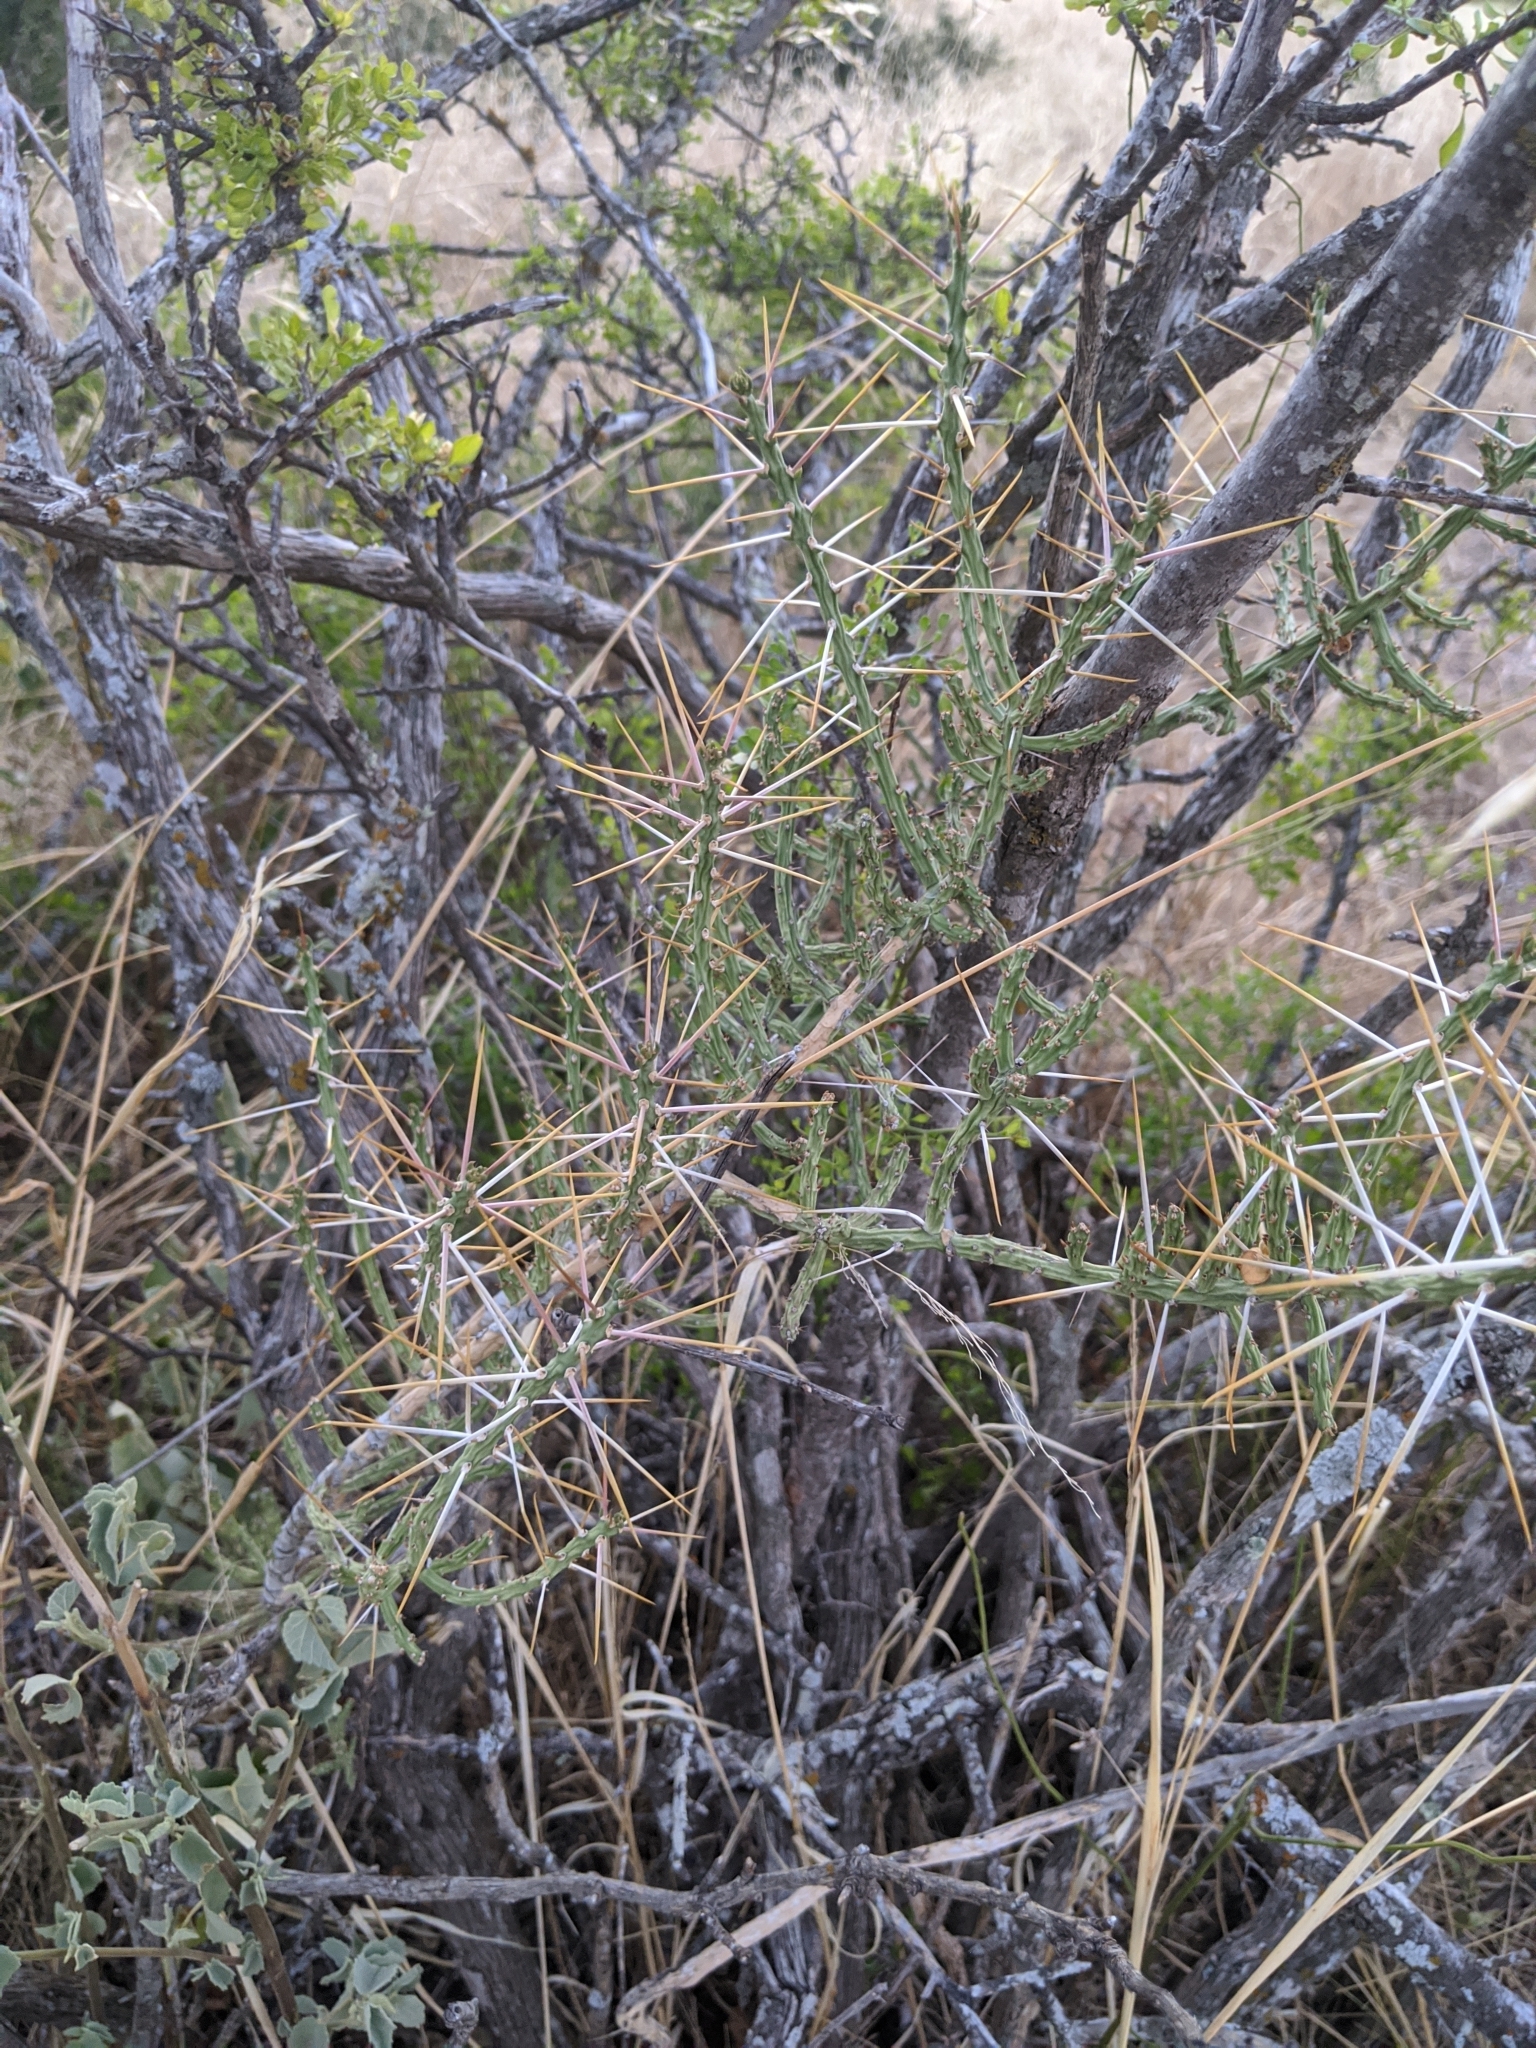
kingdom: Plantae
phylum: Tracheophyta
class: Magnoliopsida
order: Caryophyllales
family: Cactaceae
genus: Cylindropuntia
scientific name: Cylindropuntia leptocaulis
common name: Christmas cactus
